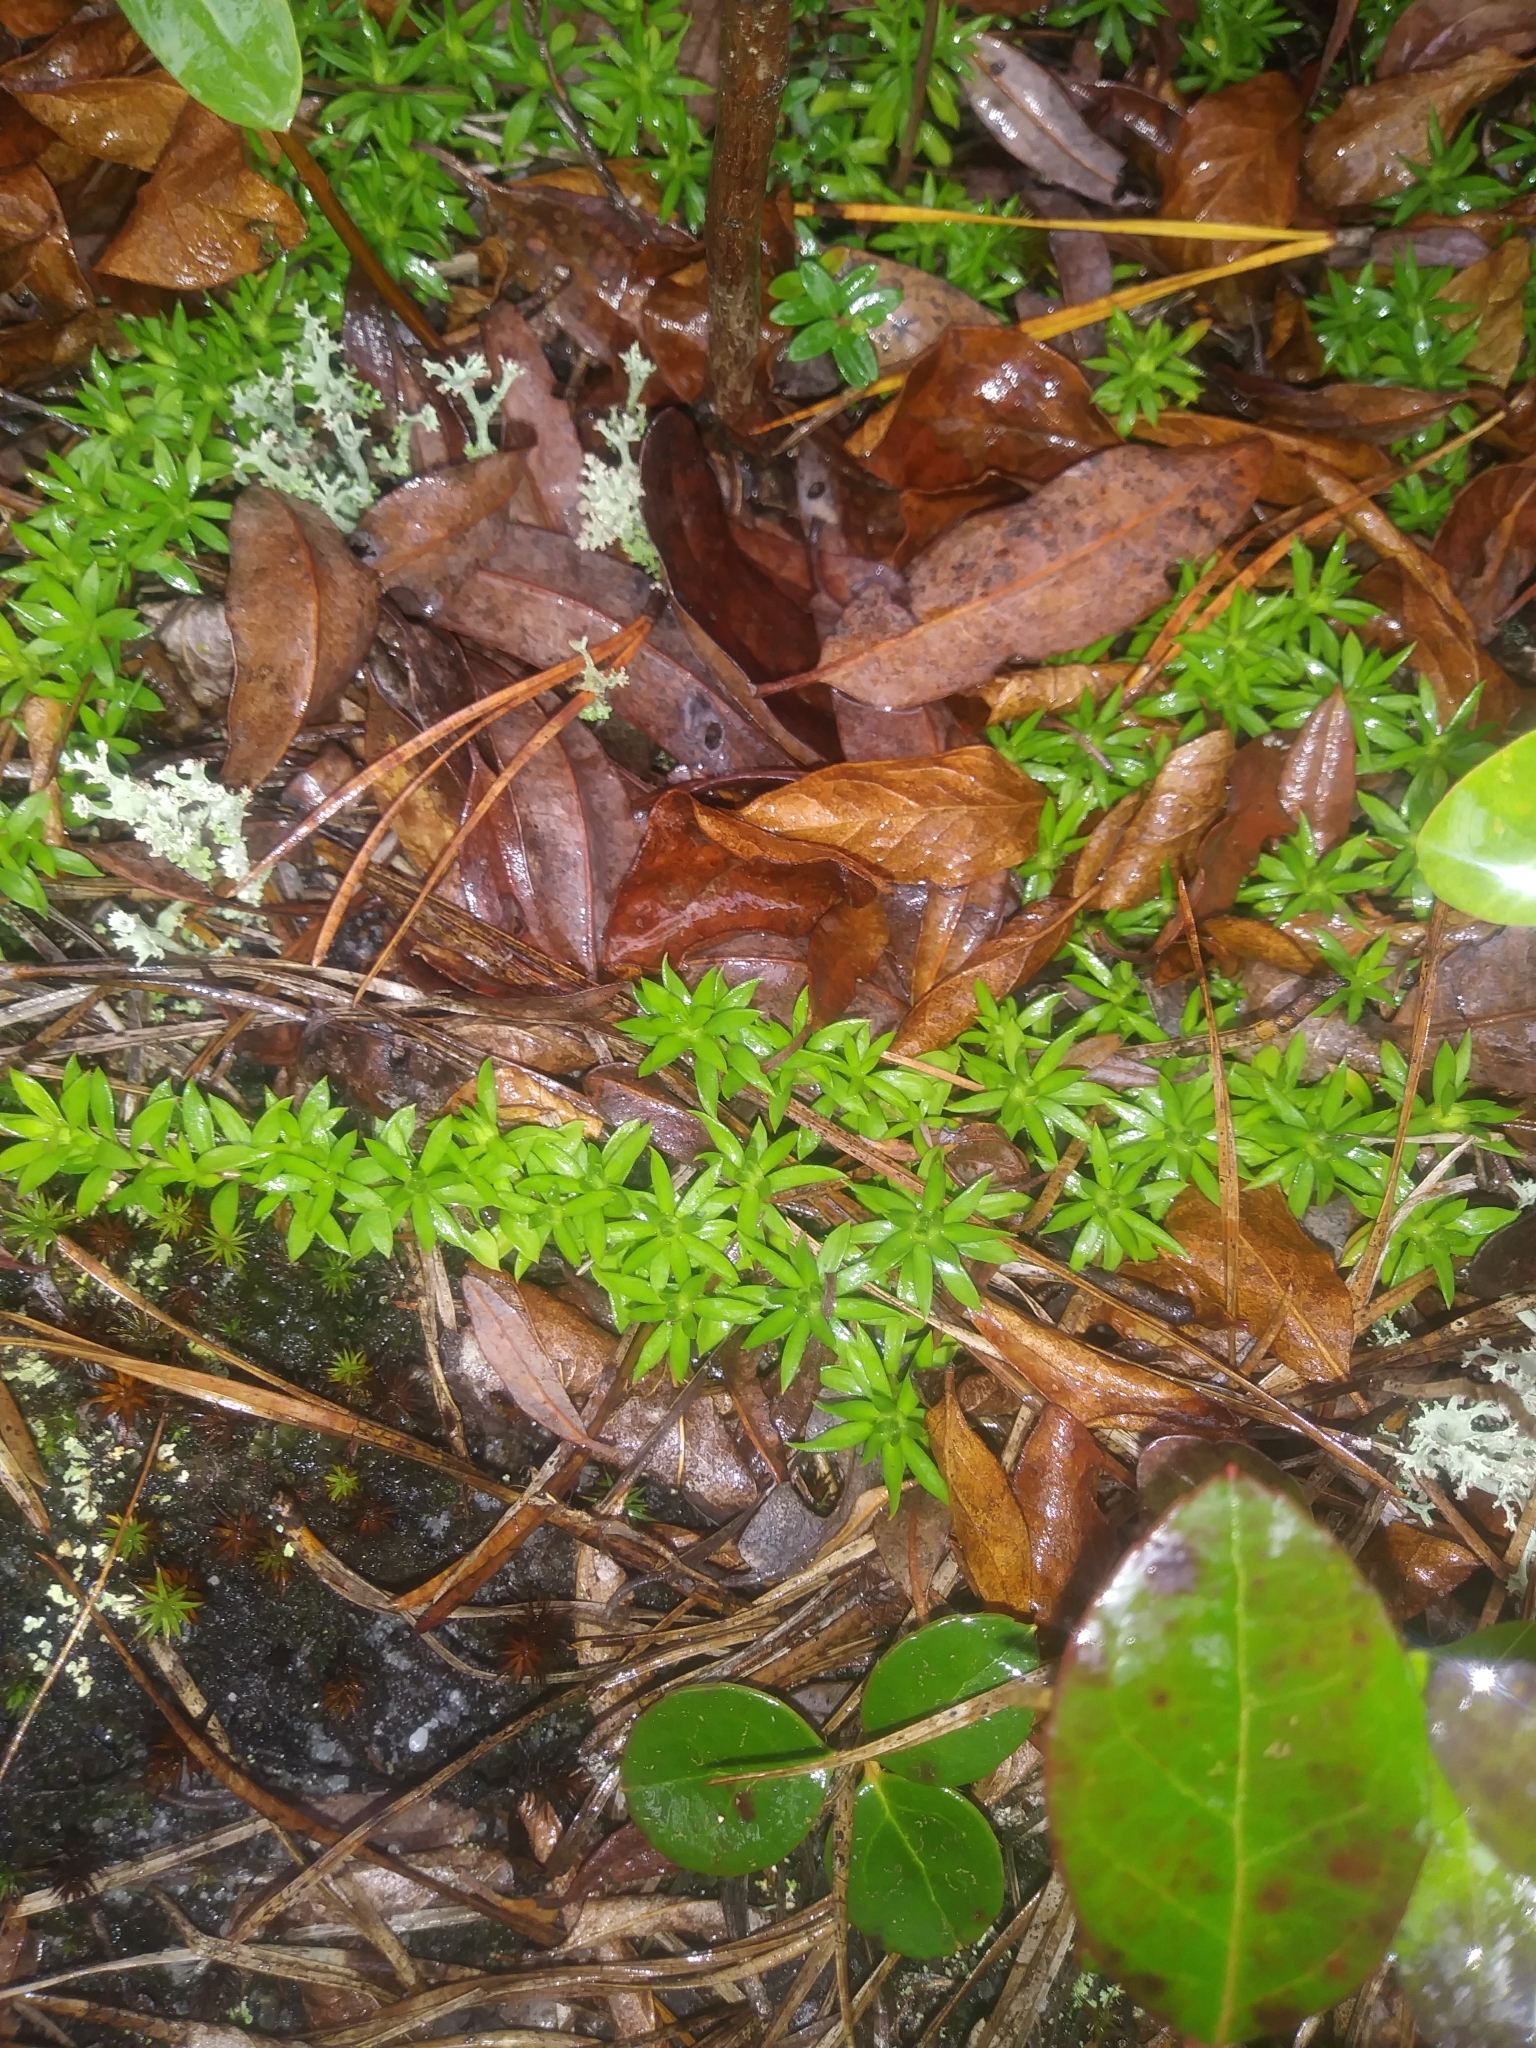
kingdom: Plantae
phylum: Tracheophyta
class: Magnoliopsida
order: Ericales
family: Diapensiaceae
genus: Pyxidanthera
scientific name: Pyxidanthera barbulata
